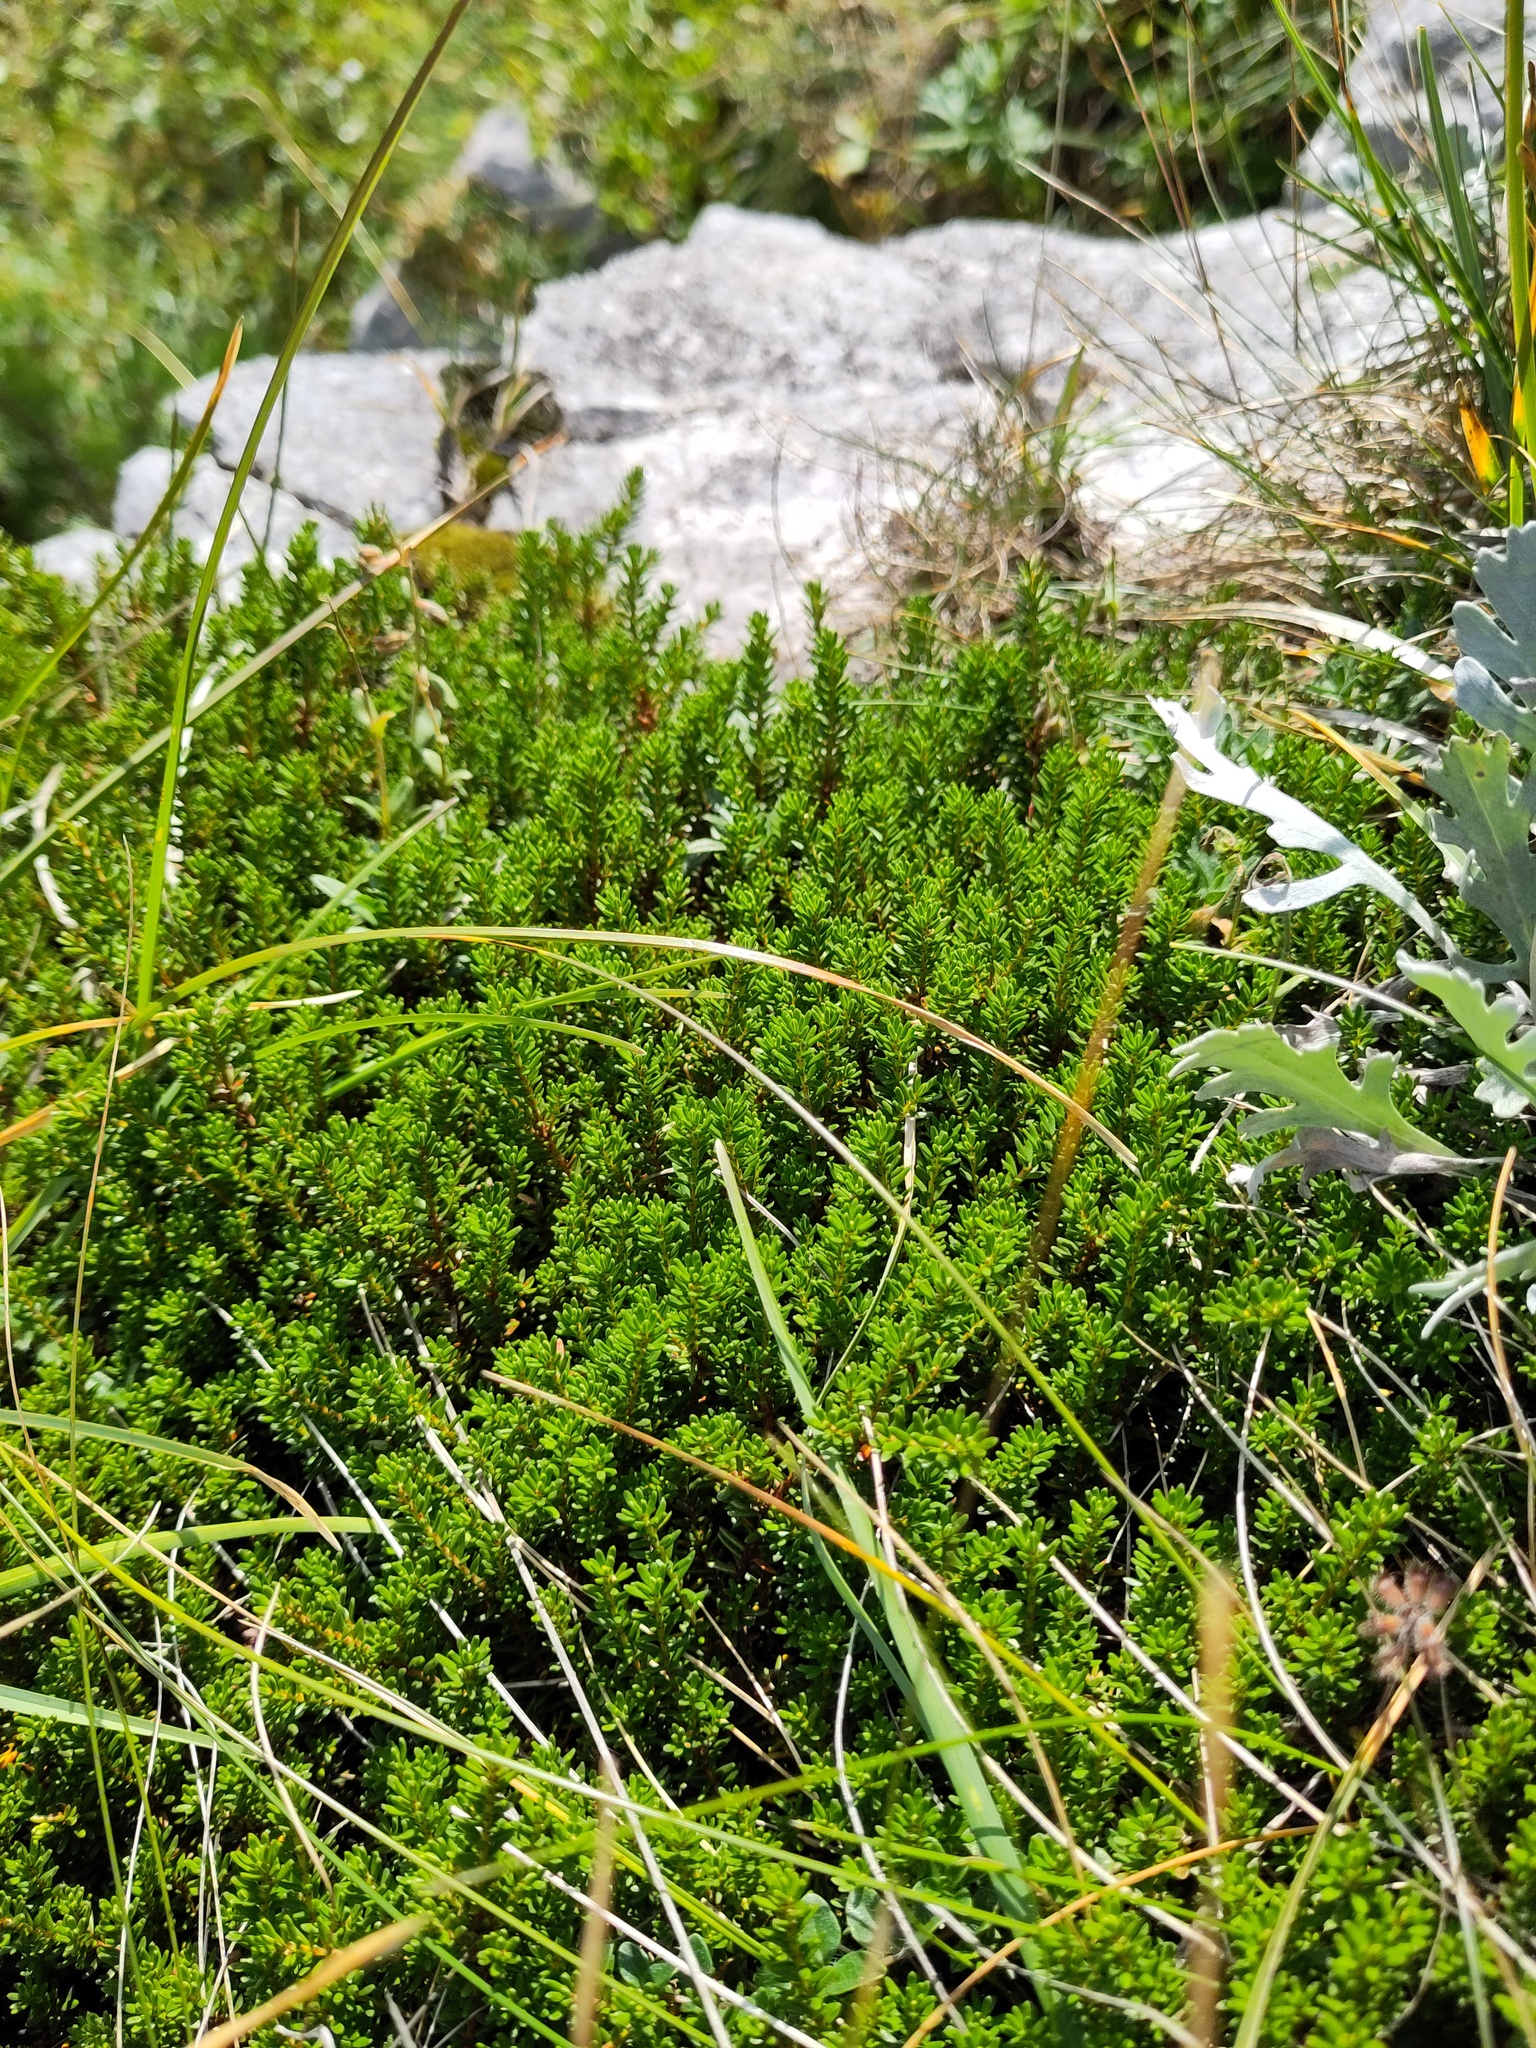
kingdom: Plantae
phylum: Tracheophyta
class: Magnoliopsida
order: Ericales
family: Ericaceae
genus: Empetrum
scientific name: Empetrum nigrum
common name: Black crowberry
